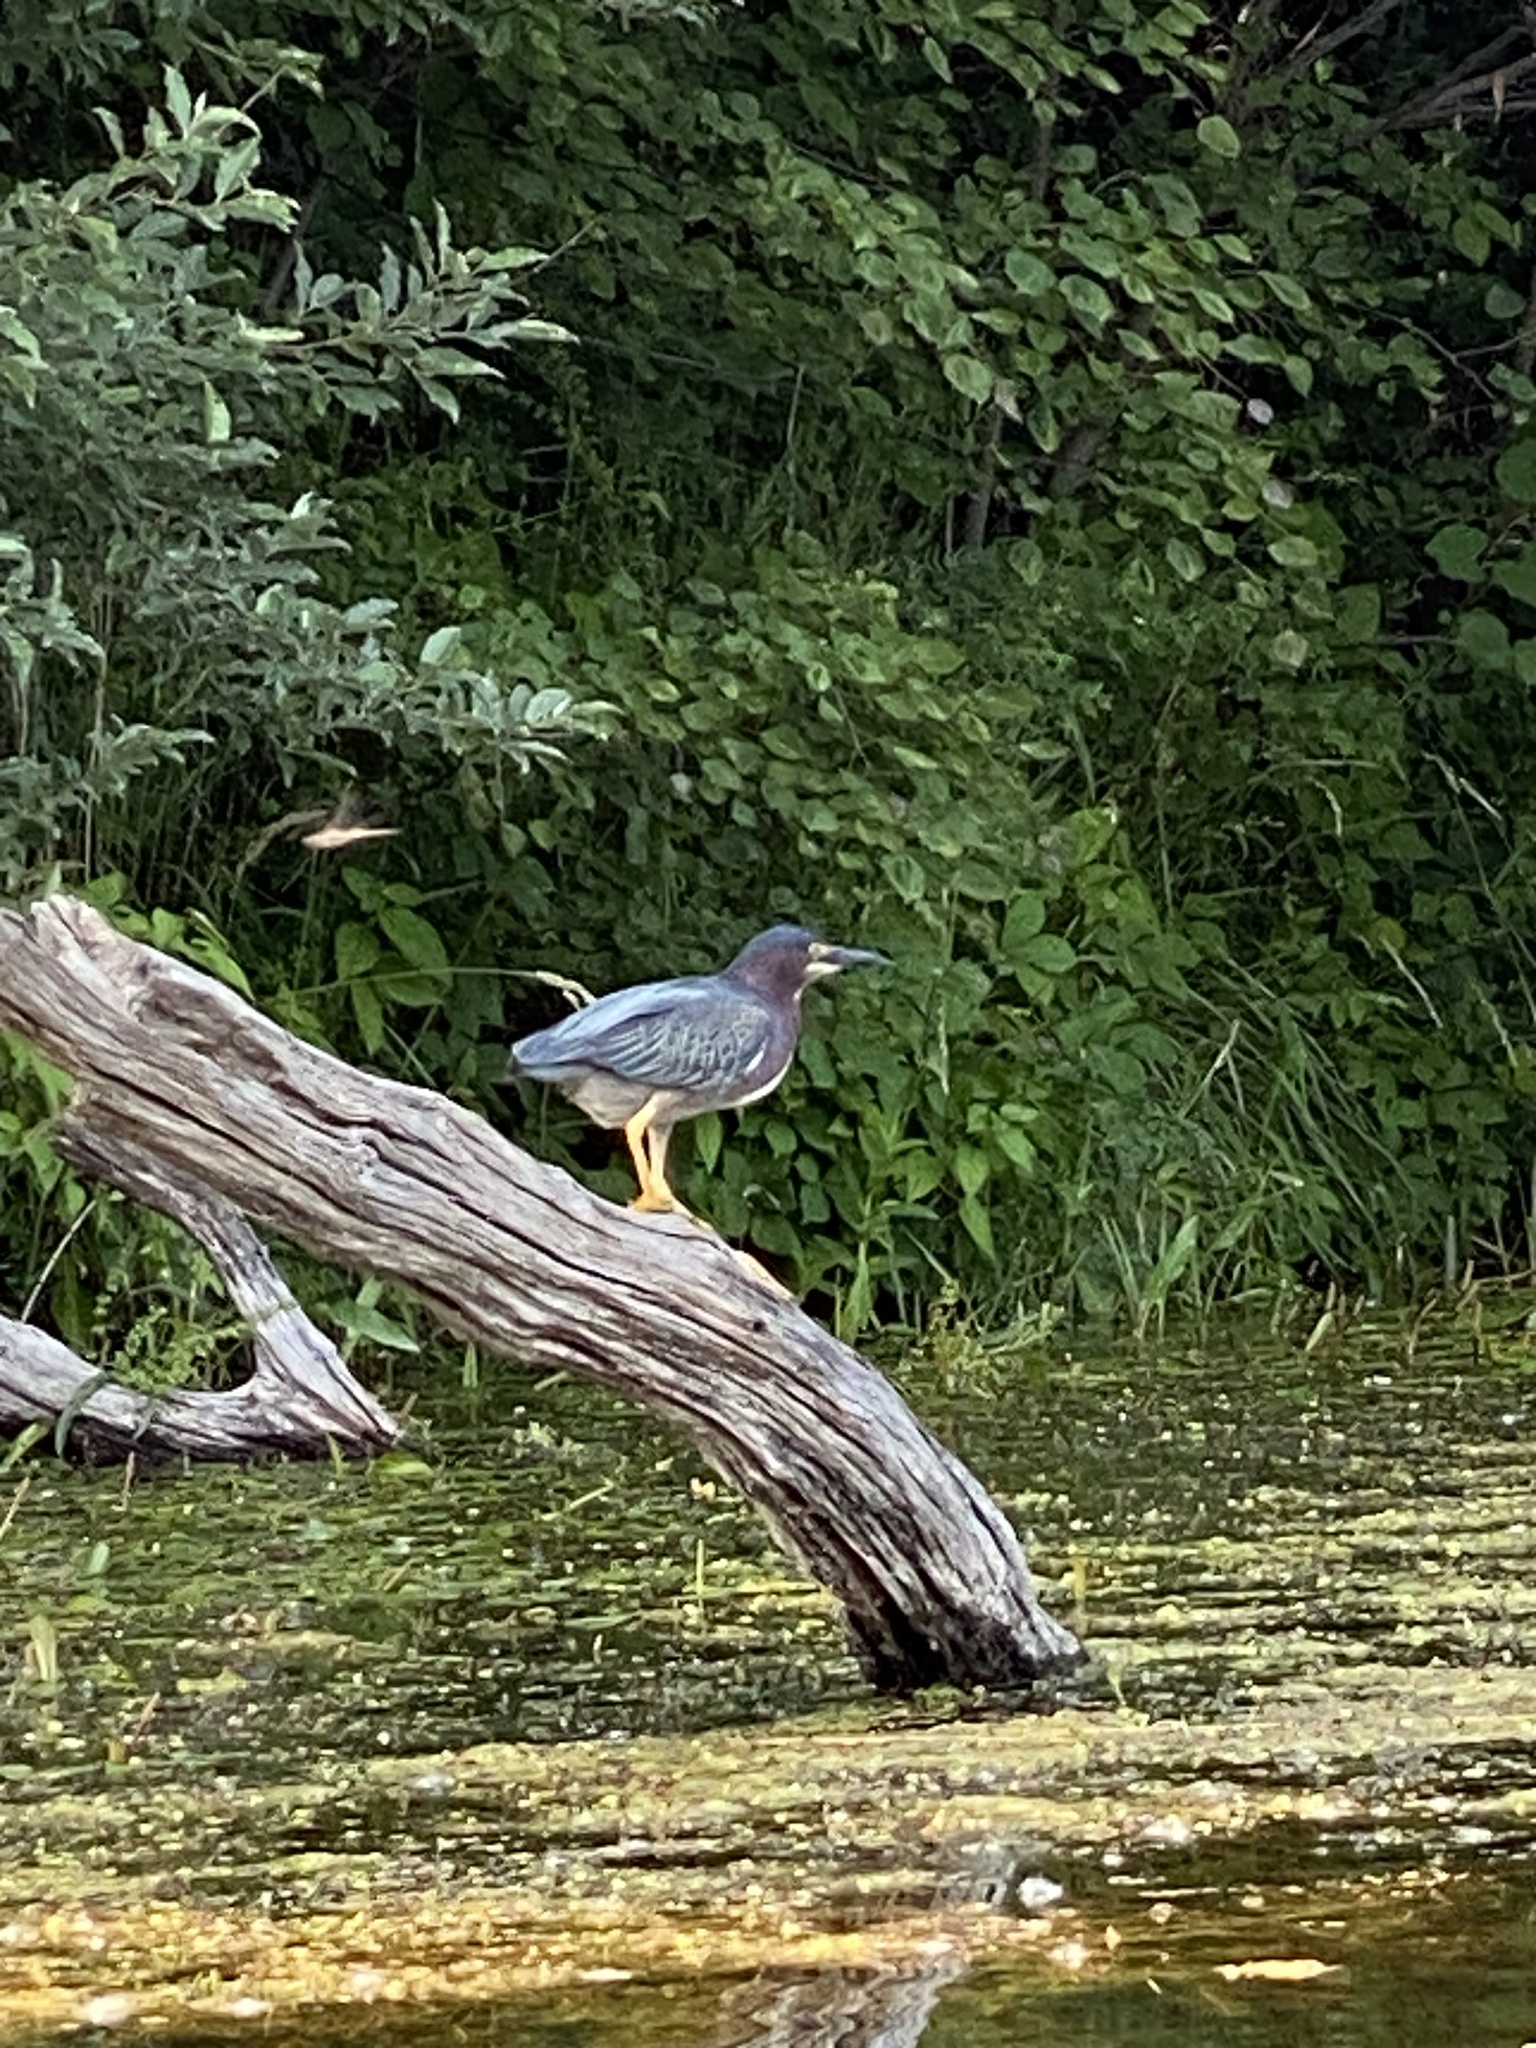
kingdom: Animalia
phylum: Chordata
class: Aves
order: Pelecaniformes
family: Ardeidae
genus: Butorides
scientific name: Butorides virescens
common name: Green heron
